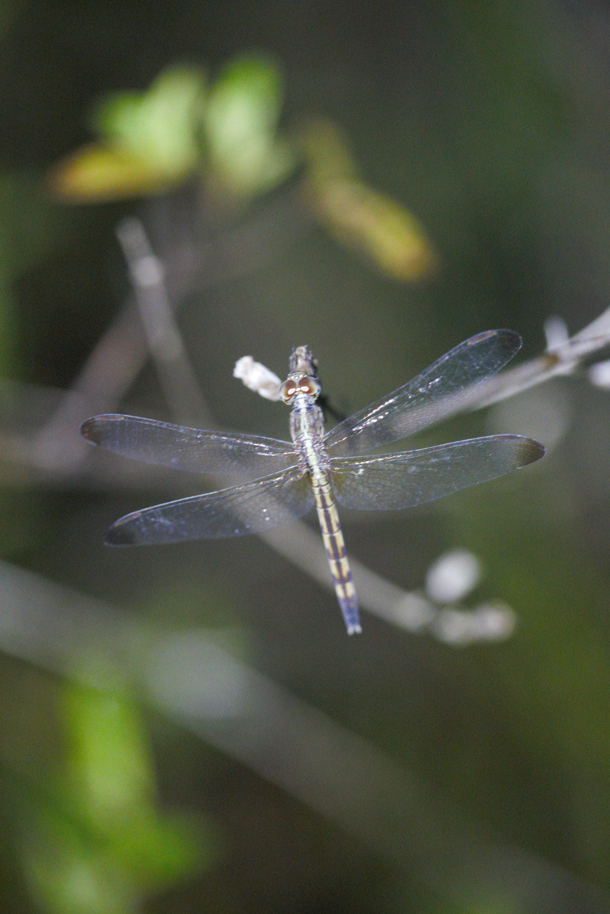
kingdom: Animalia
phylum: Arthropoda
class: Insecta
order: Odonata
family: Libellulidae
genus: Erythrodiplax
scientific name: Erythrodiplax umbrata
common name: Band-winged dragonlet
